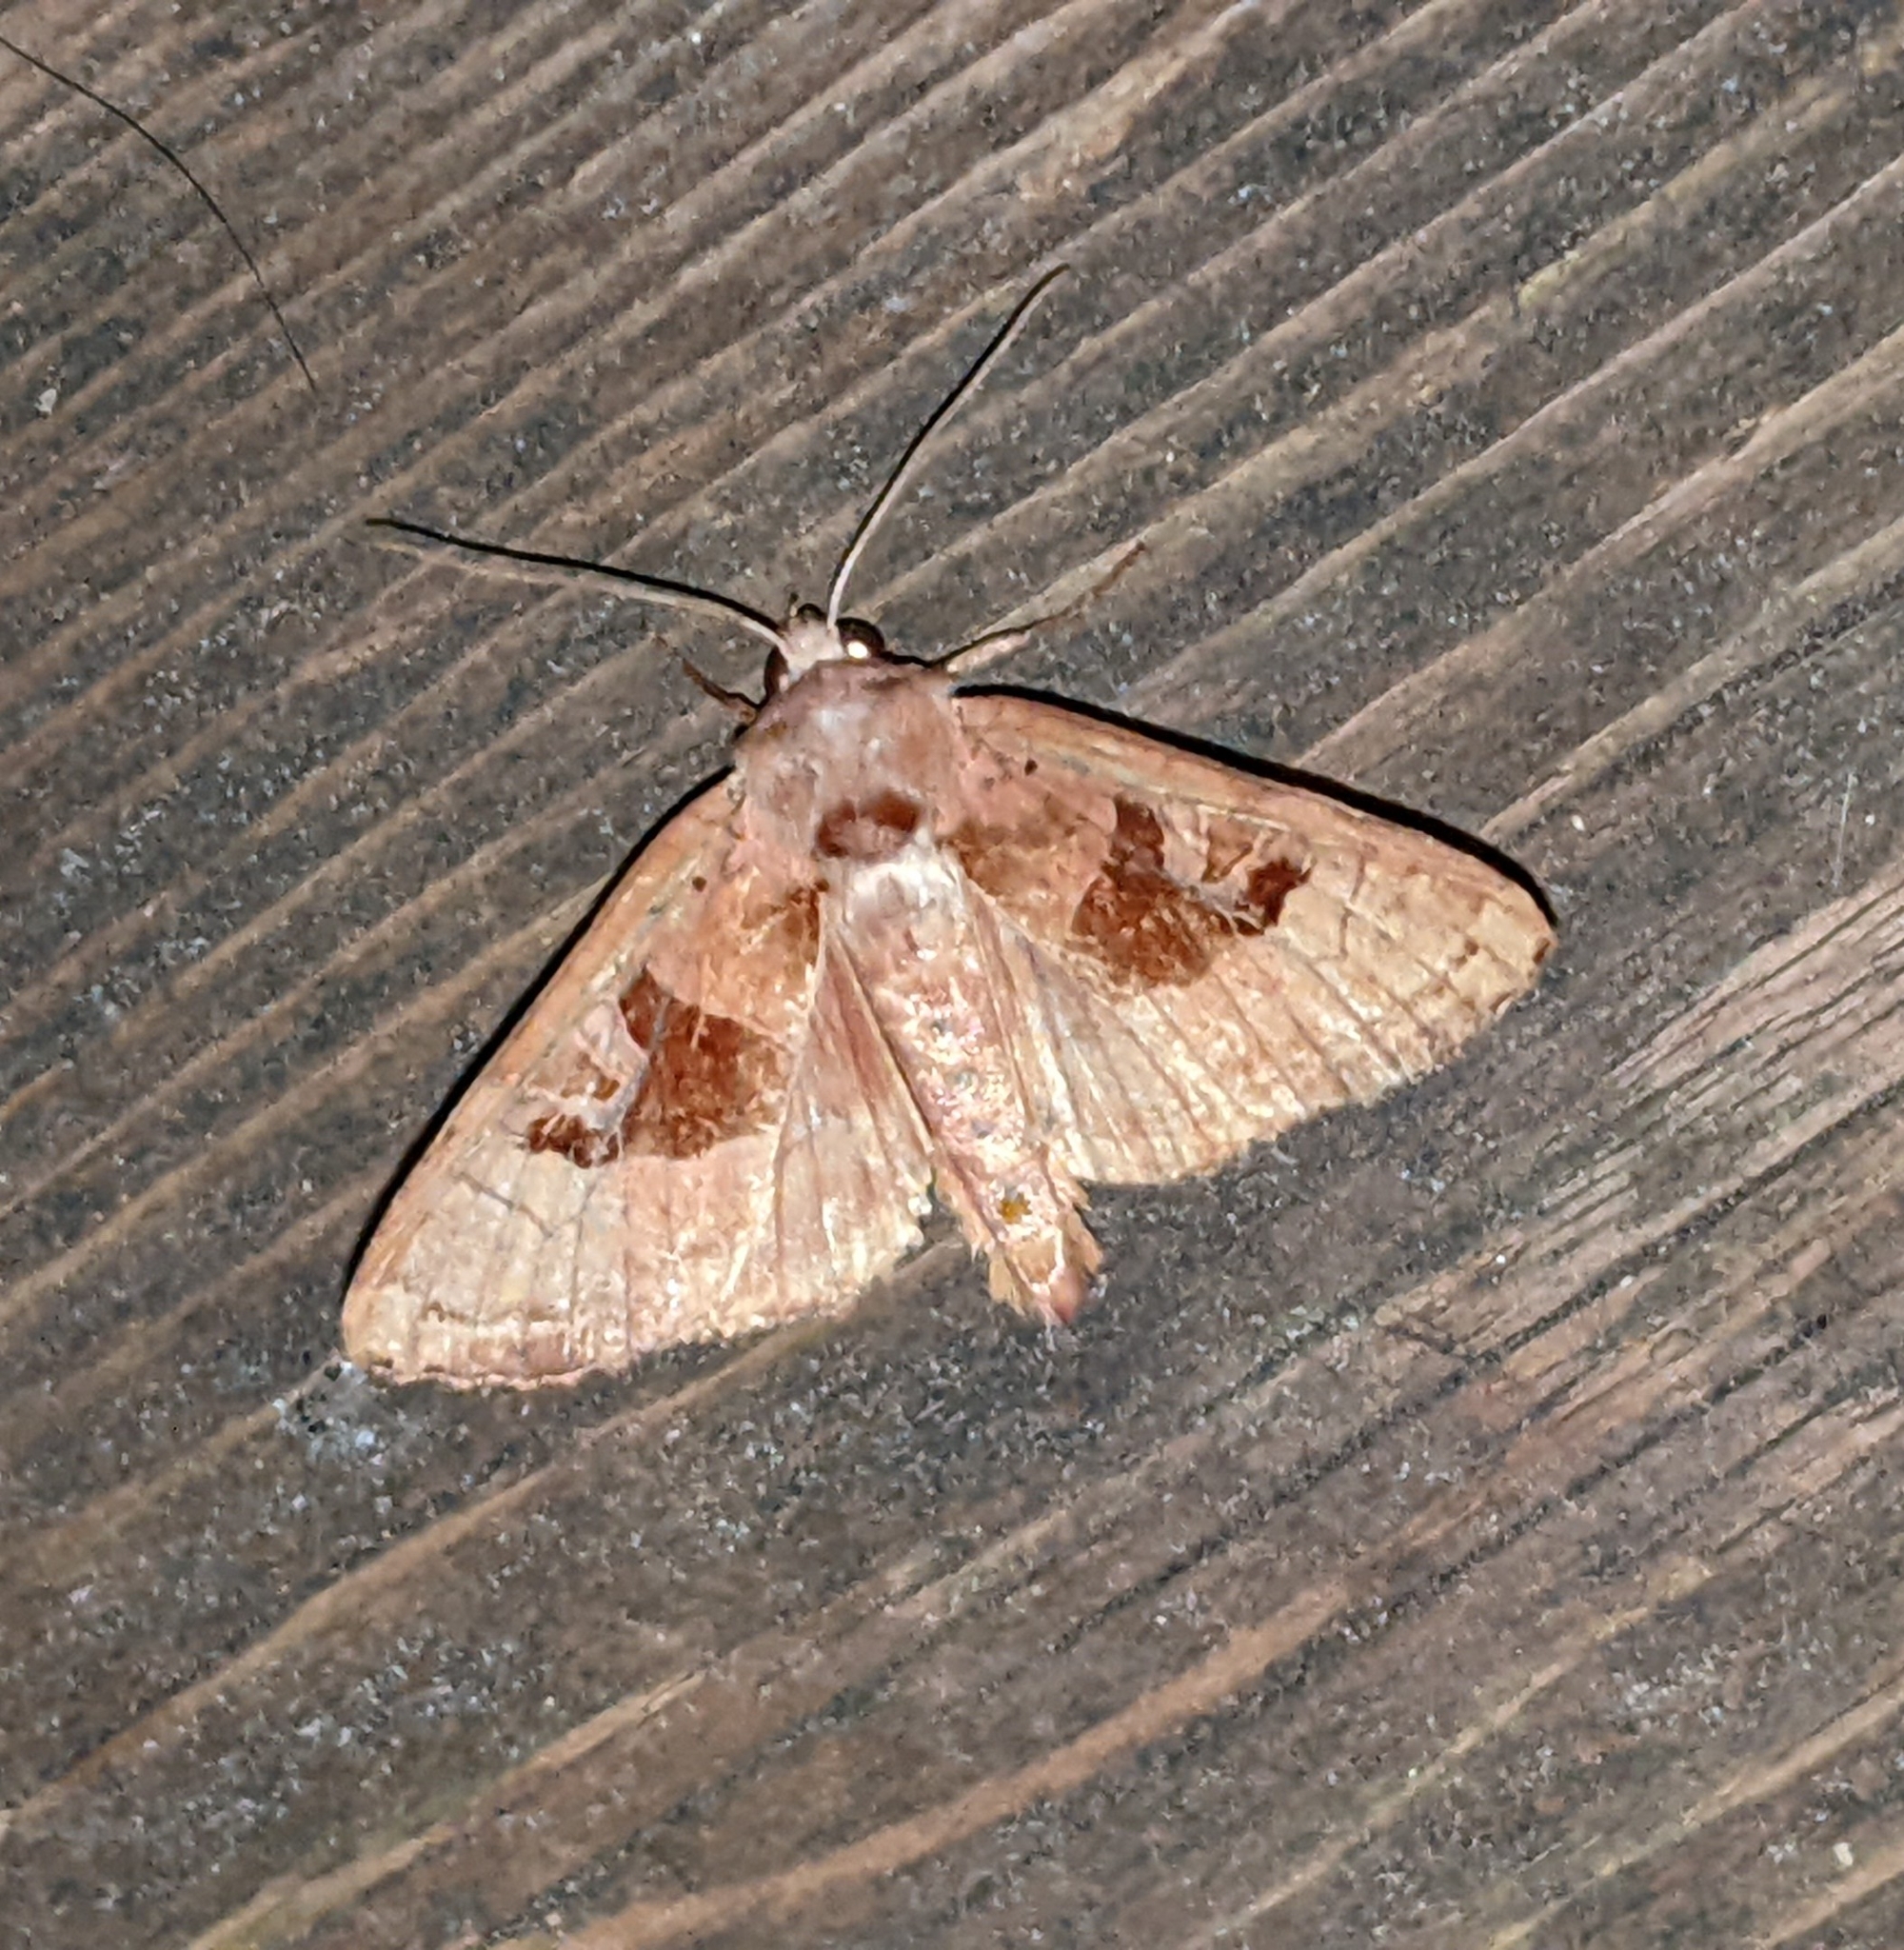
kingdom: Animalia
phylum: Arthropoda
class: Insecta
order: Lepidoptera
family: Noctuidae
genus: Phlogophora
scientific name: Phlogophora periculosa
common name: Brown angle shades
